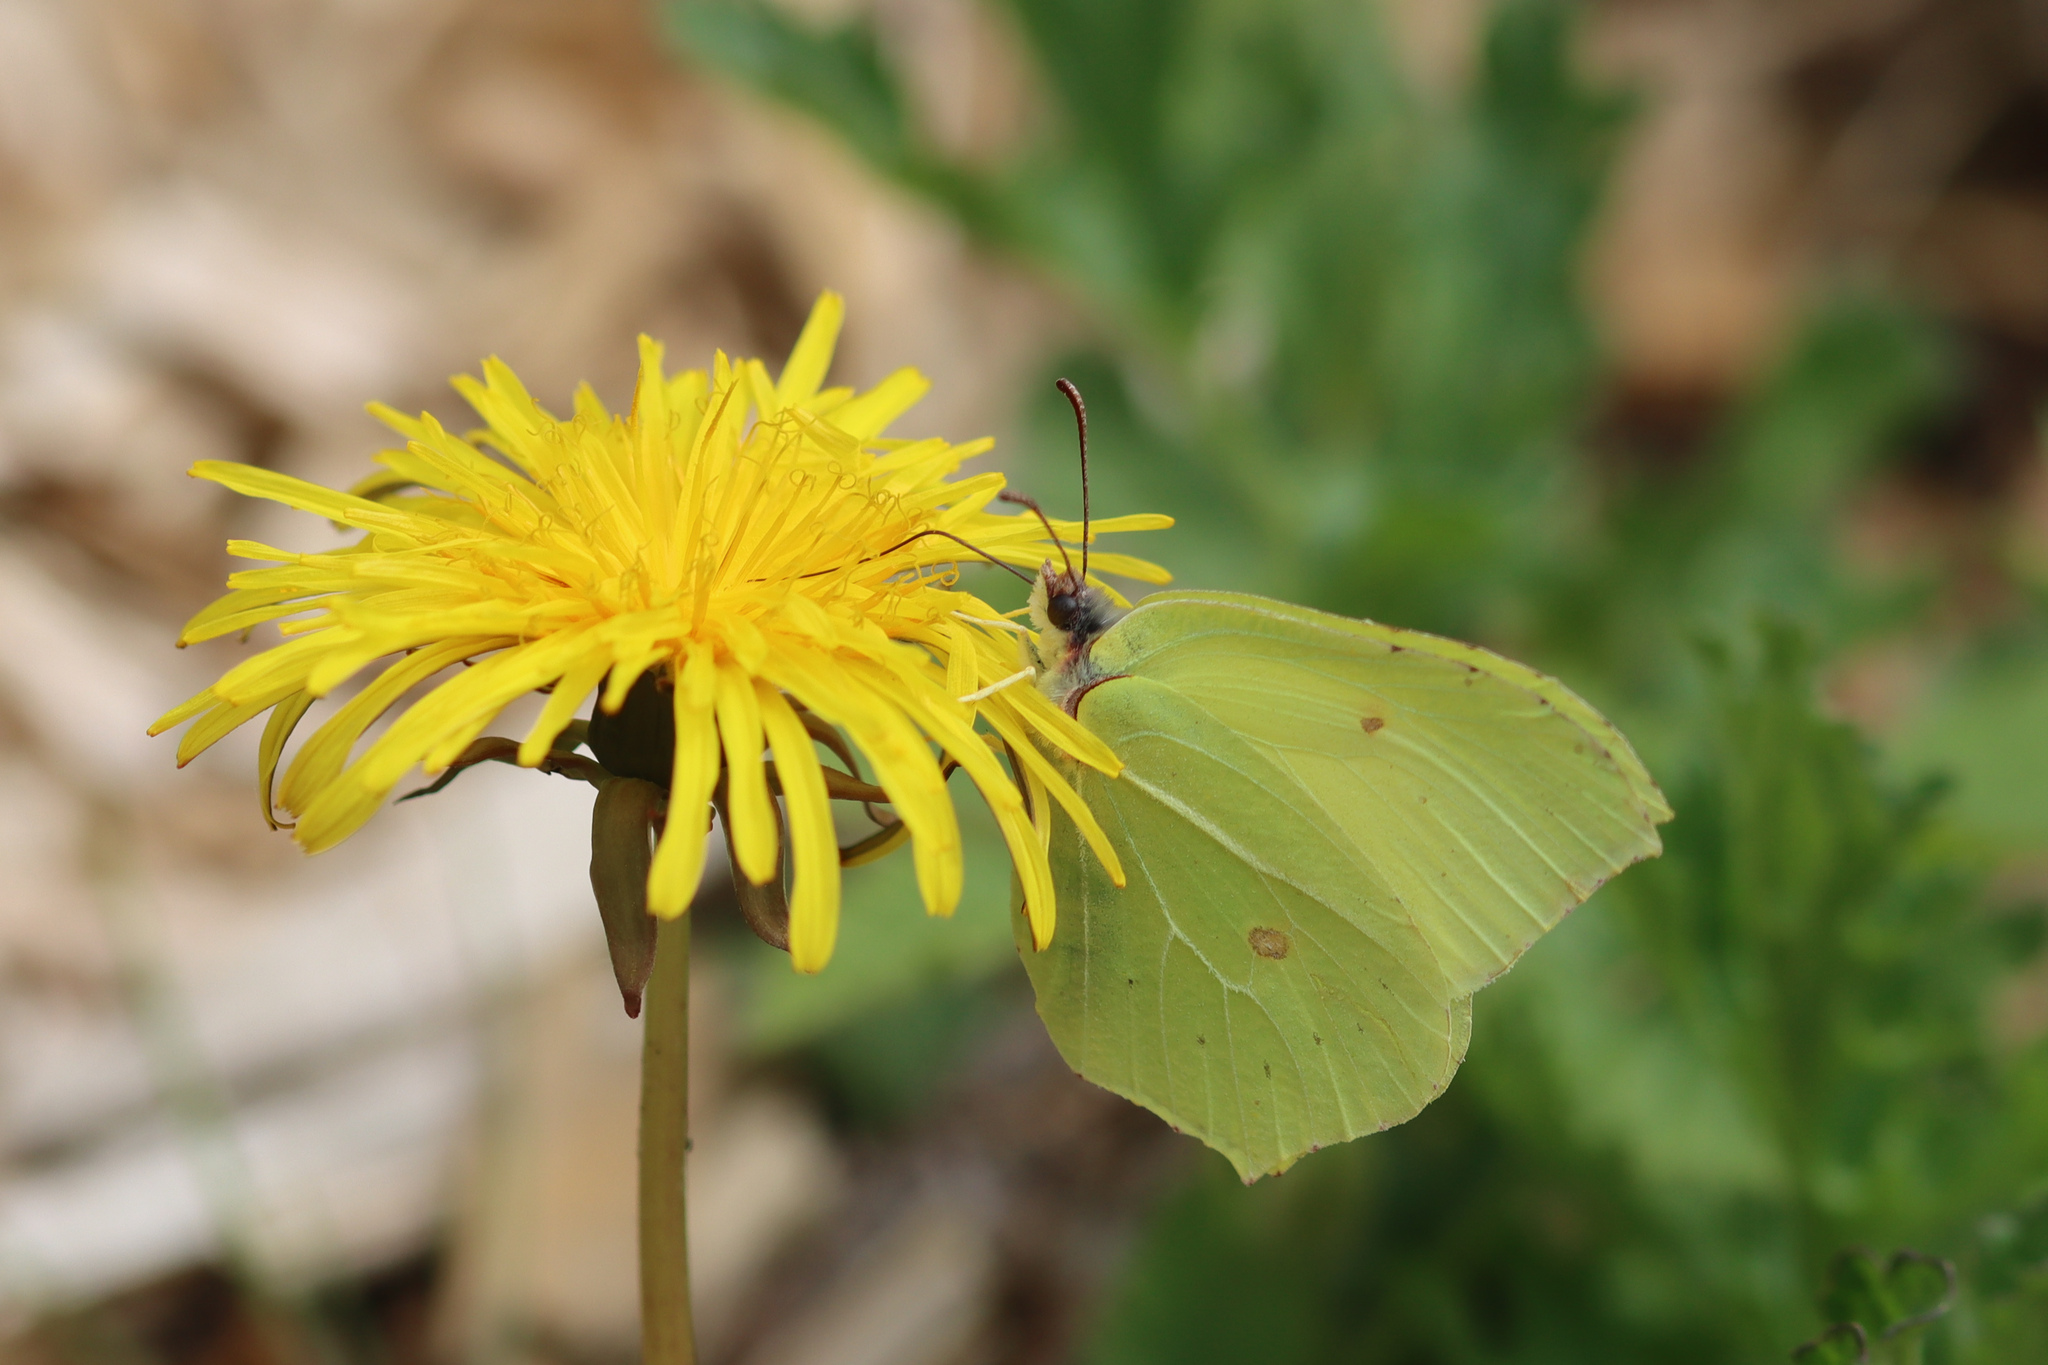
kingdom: Animalia
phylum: Arthropoda
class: Insecta
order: Lepidoptera
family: Pieridae
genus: Gonepteryx
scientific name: Gonepteryx rhamni
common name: Brimstone
